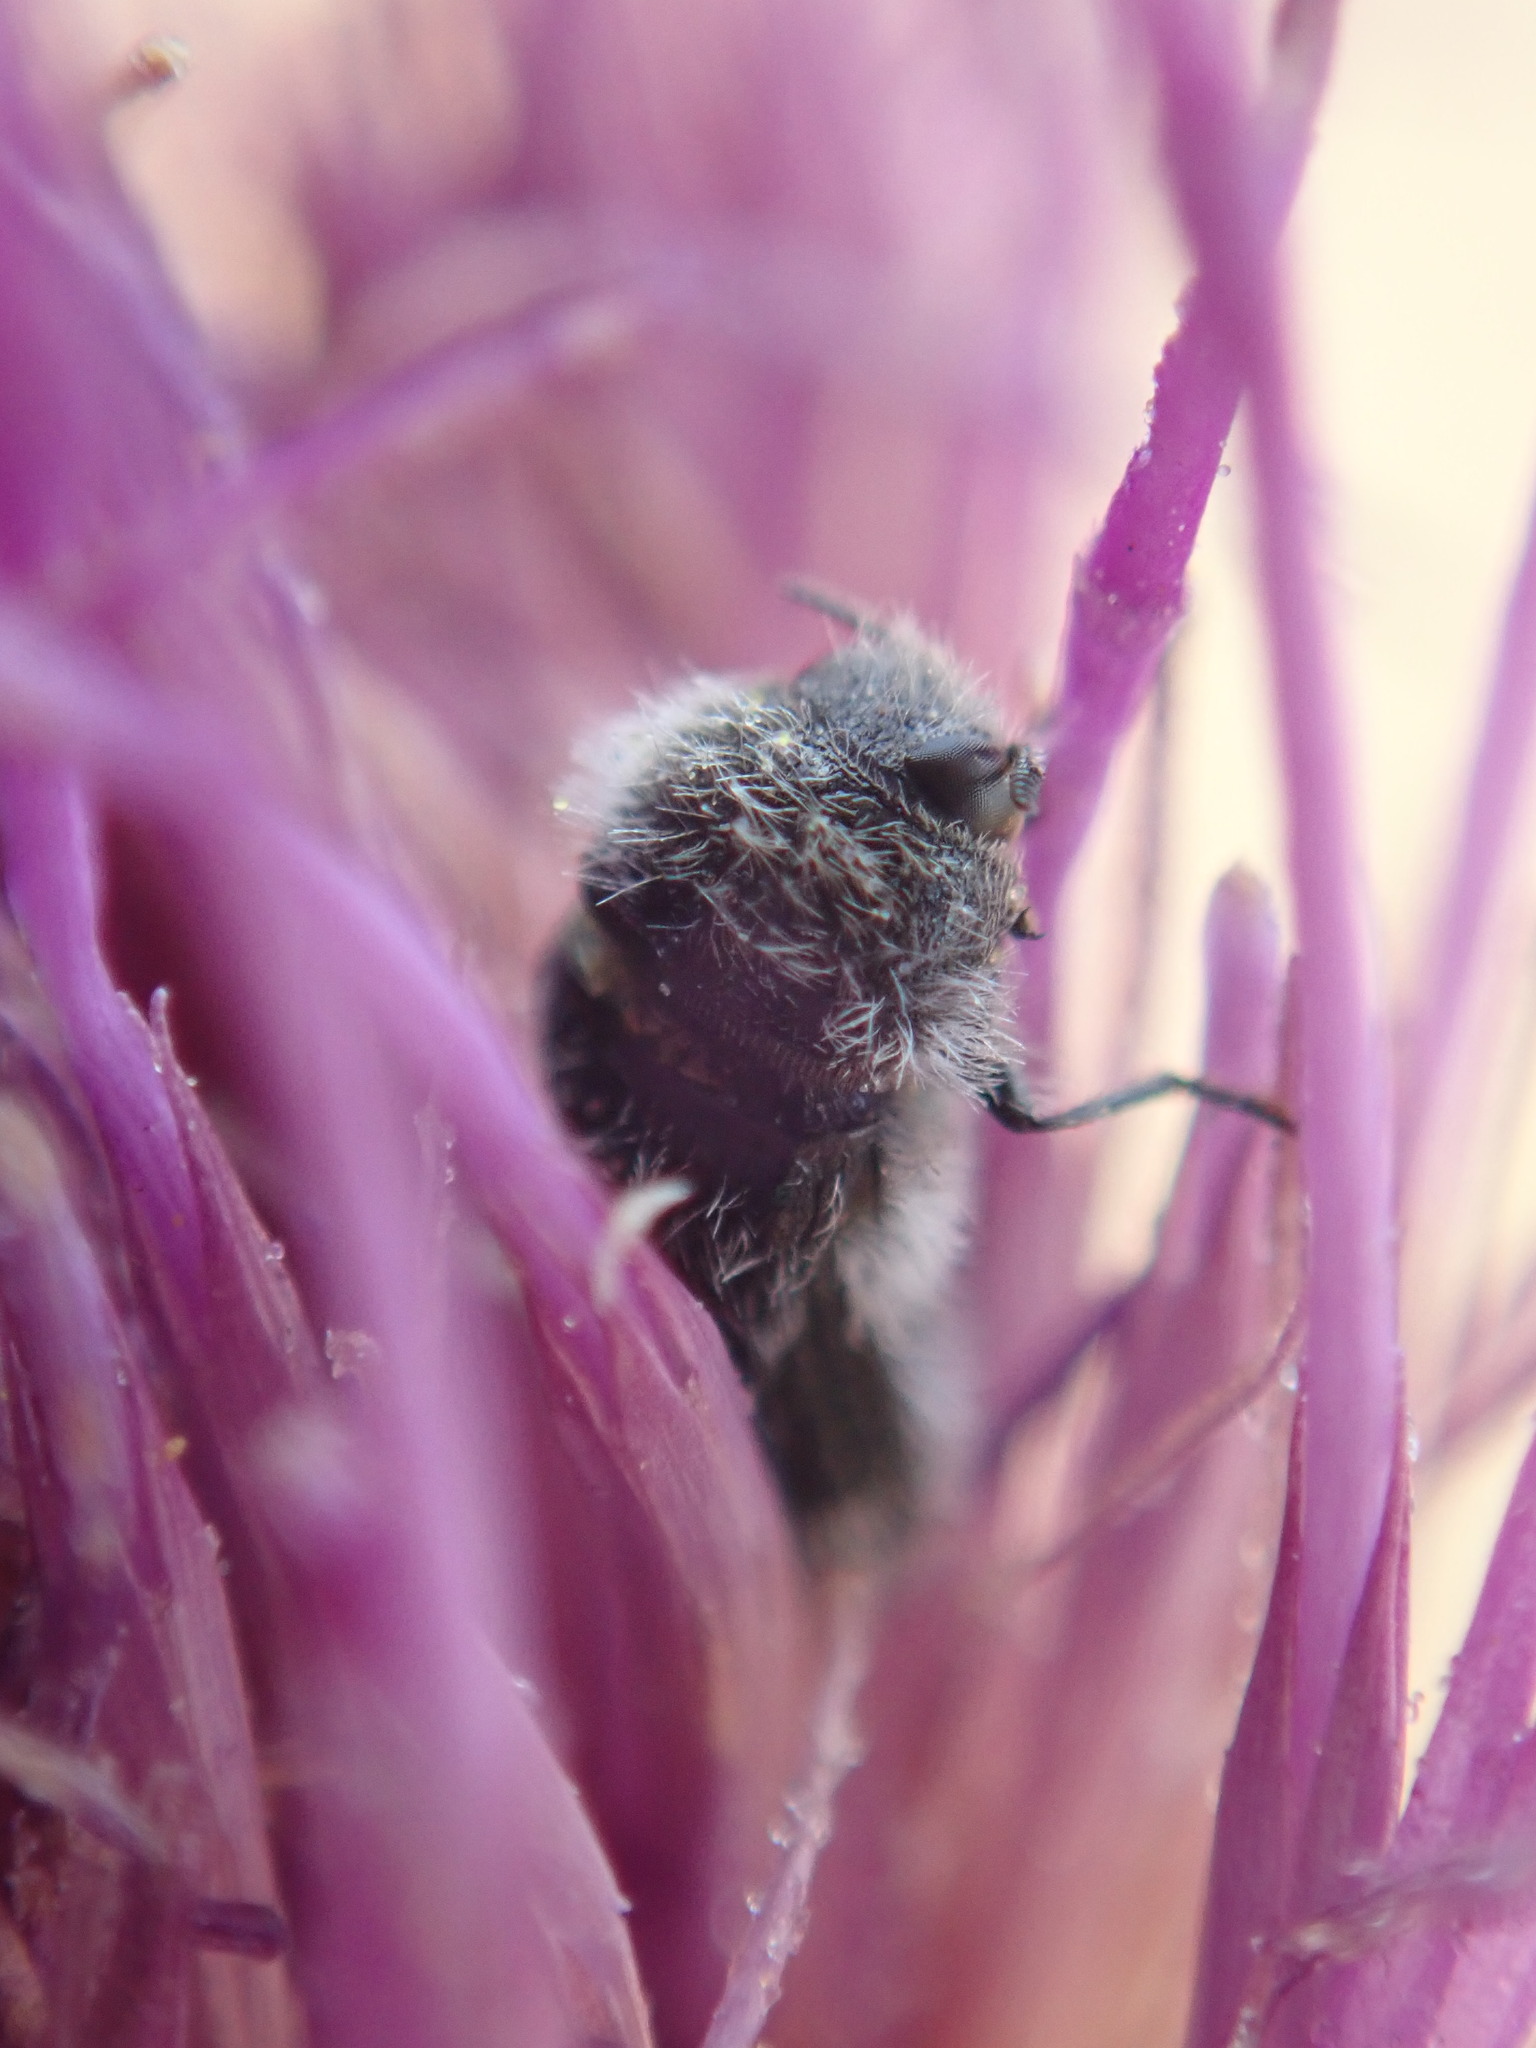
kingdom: Animalia
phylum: Arthropoda
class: Insecta
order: Coleoptera
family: Buprestidae
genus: Acmaeoderella
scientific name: Acmaeoderella perroti
